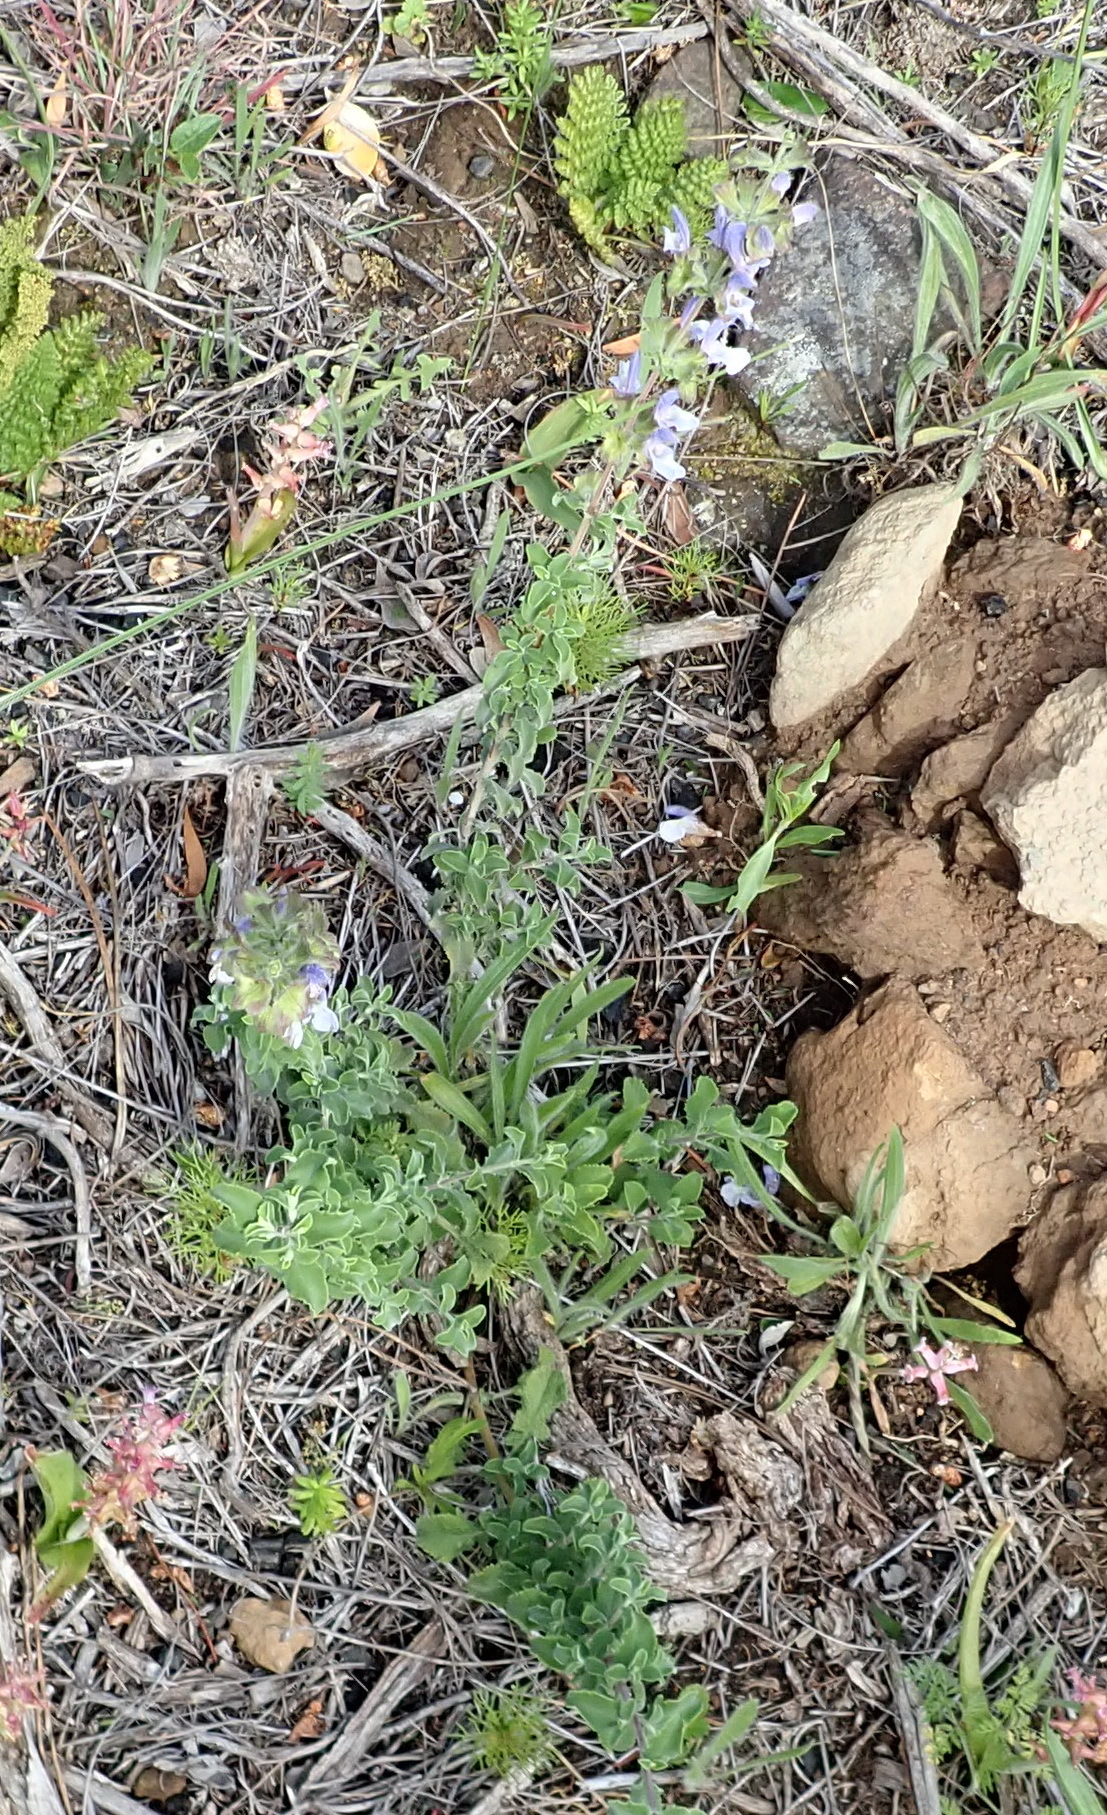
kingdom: Plantae
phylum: Tracheophyta
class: Magnoliopsida
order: Lamiales
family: Lamiaceae
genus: Salvia
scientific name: Salvia africana
